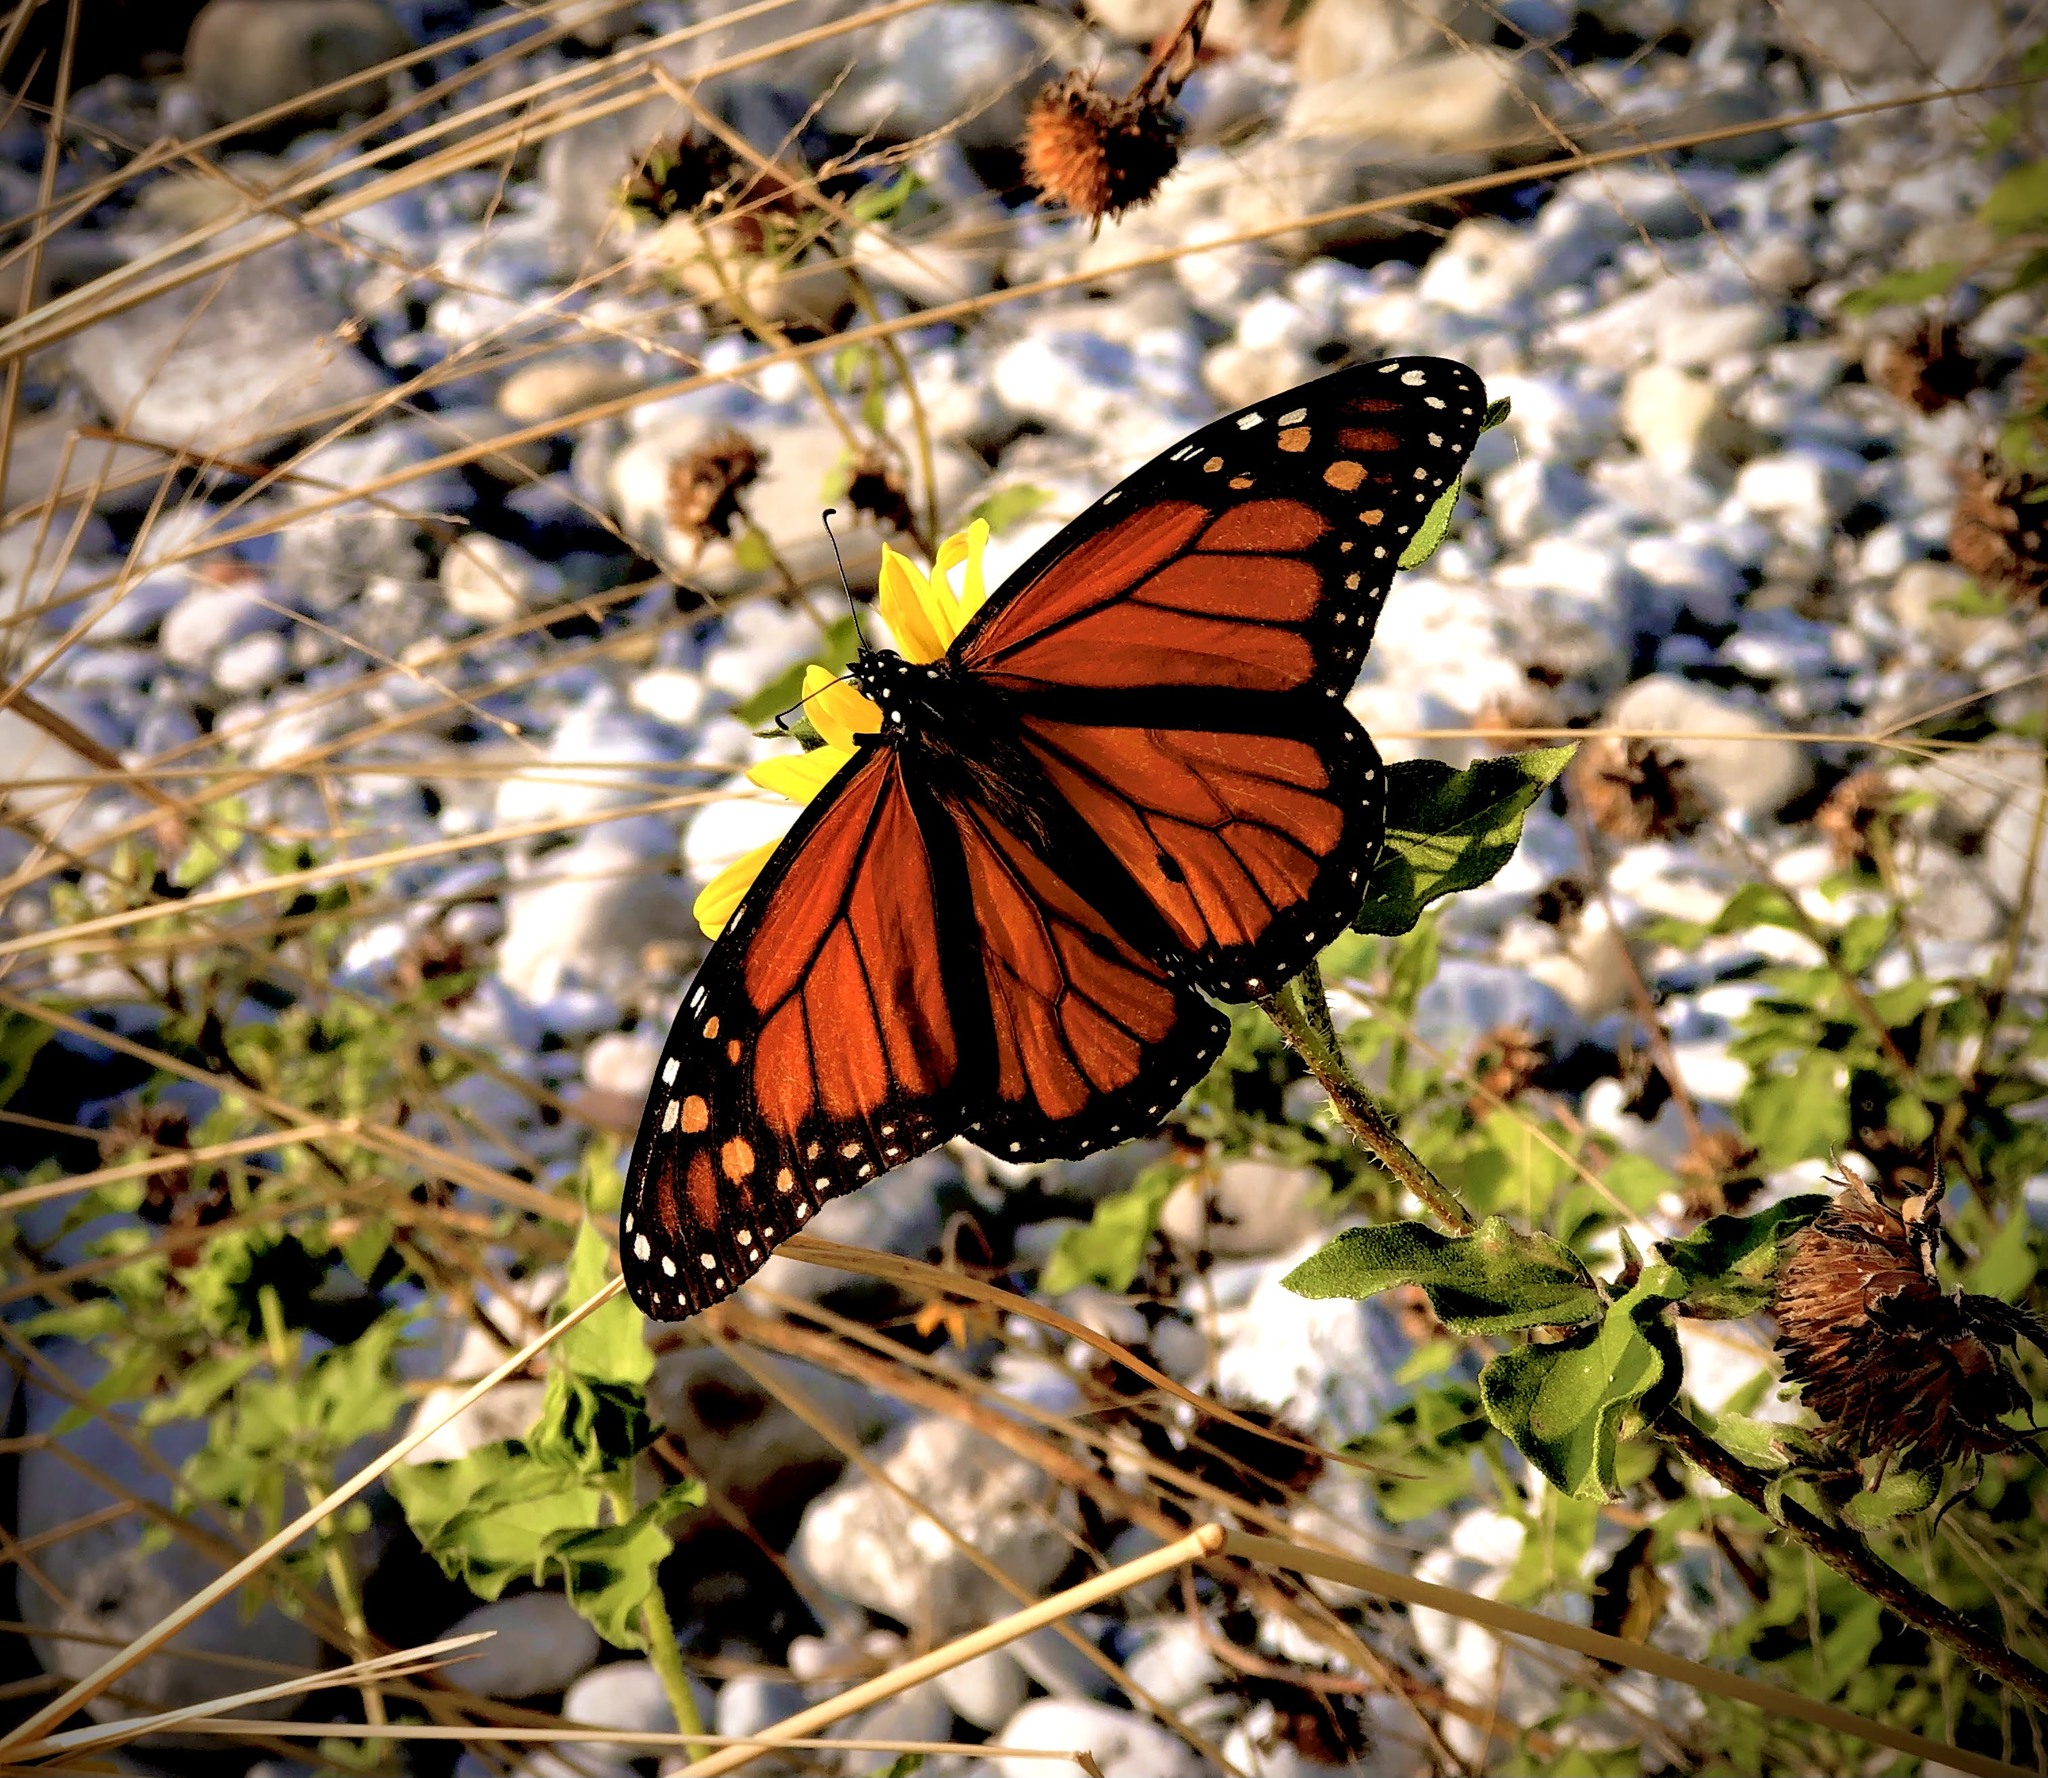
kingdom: Animalia
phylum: Arthropoda
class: Insecta
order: Lepidoptera
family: Nymphalidae
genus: Danaus
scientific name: Danaus plexippus
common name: Monarch
